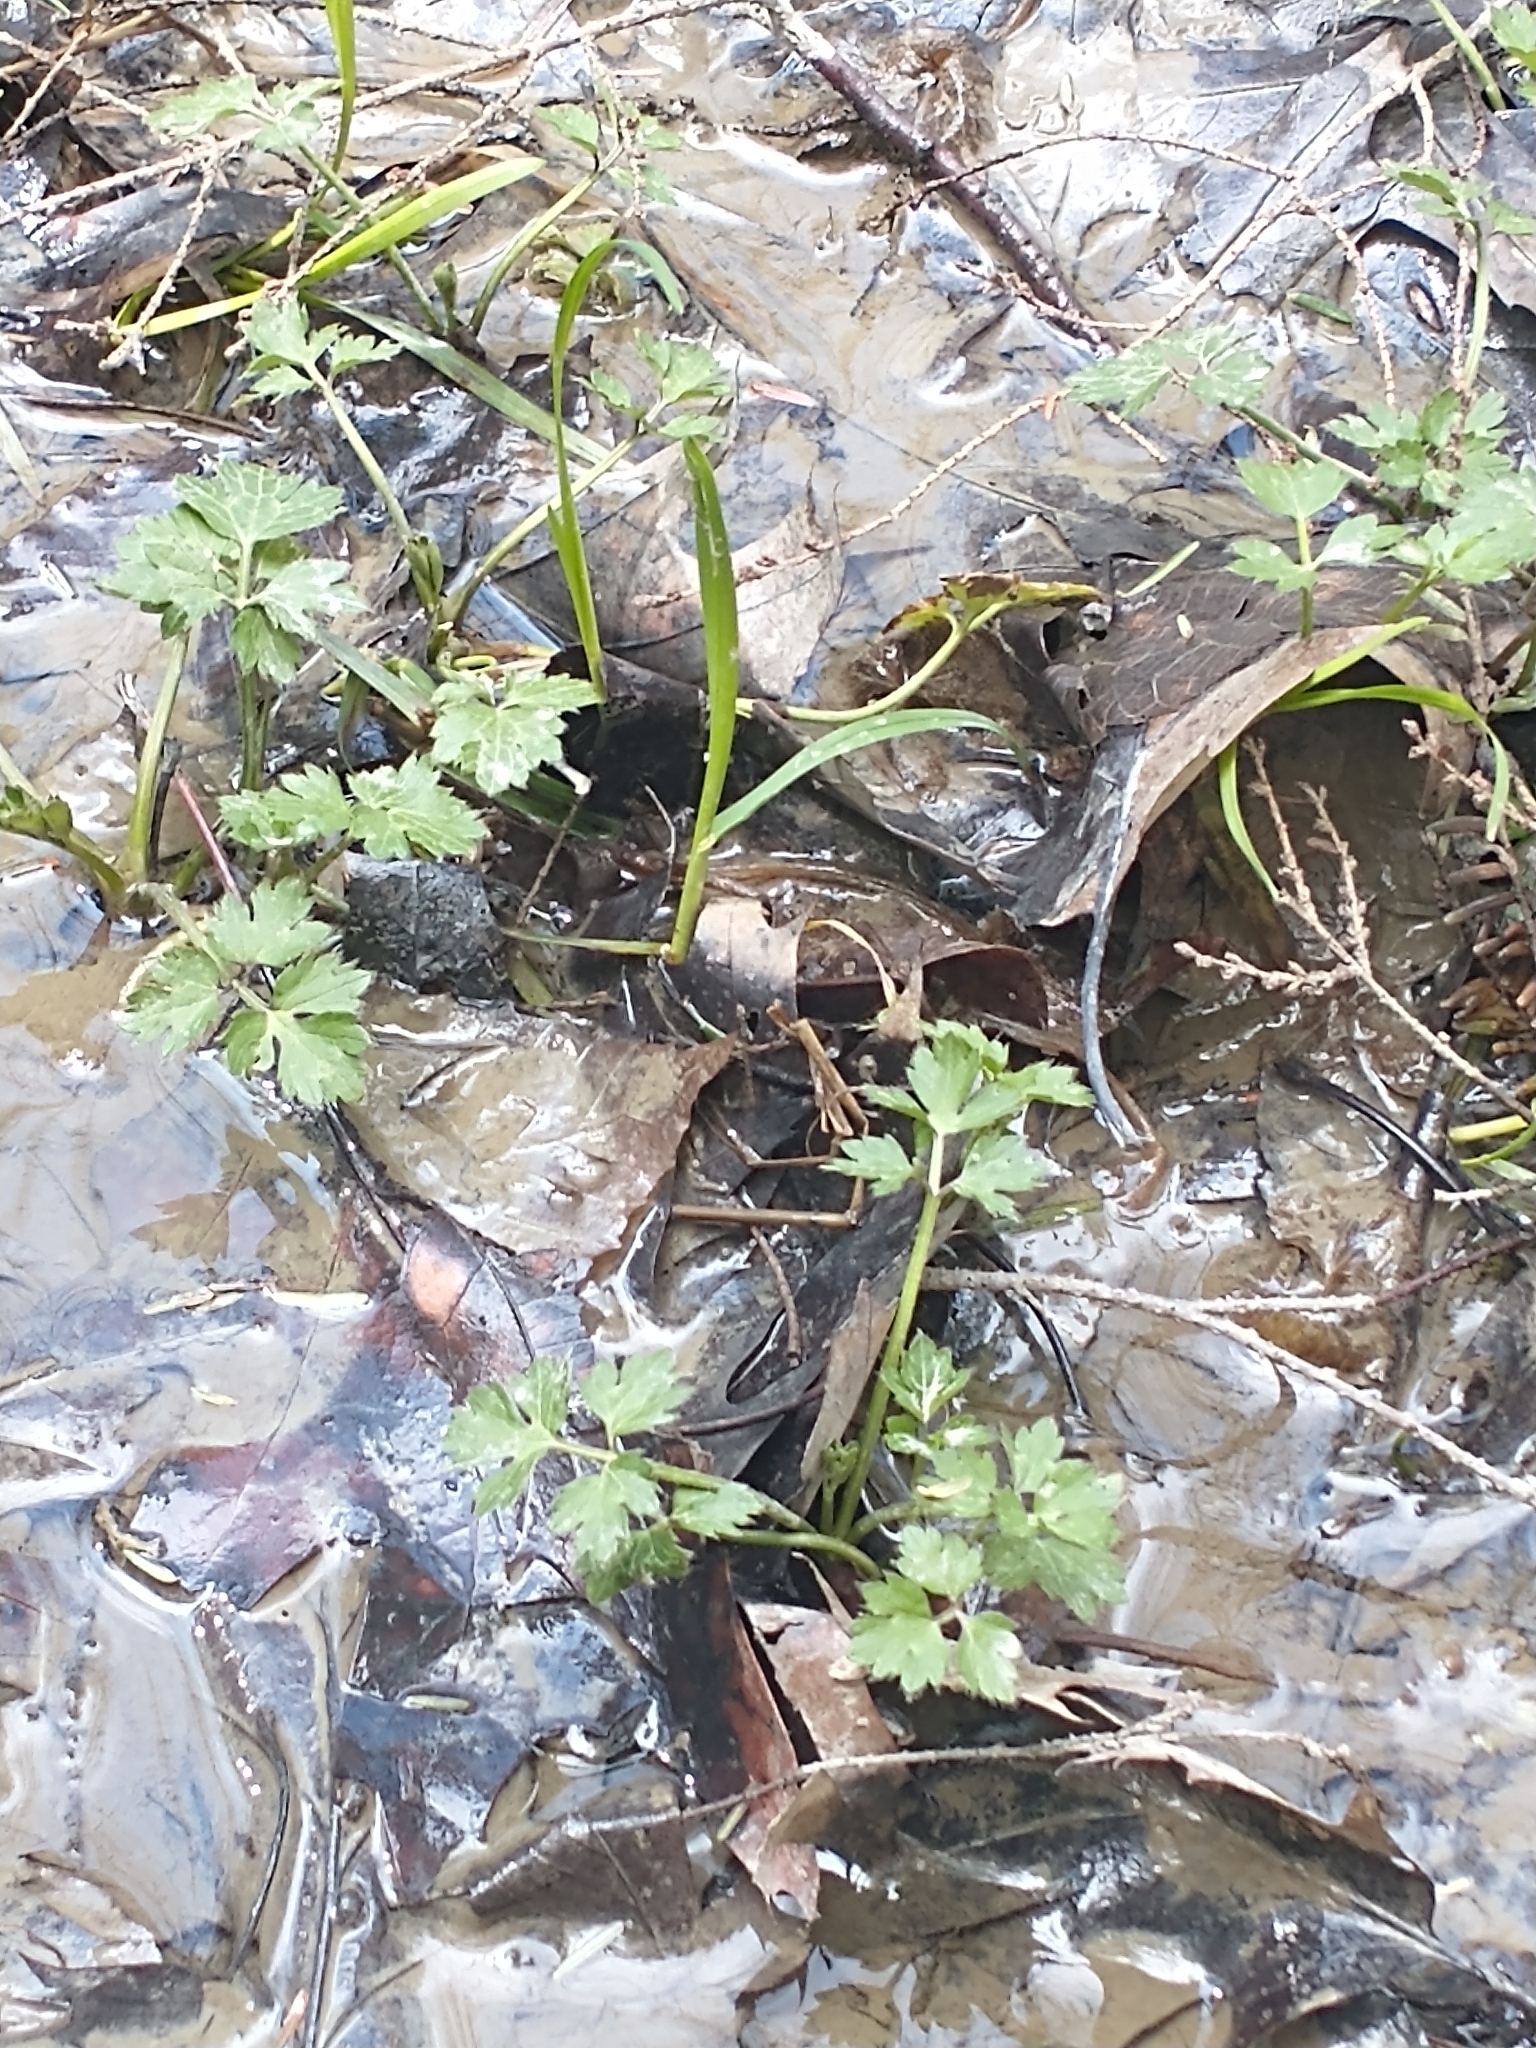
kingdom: Plantae
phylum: Tracheophyta
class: Magnoliopsida
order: Ranunculales
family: Ranunculaceae
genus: Ranunculus
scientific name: Ranunculus repens
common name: Creeping buttercup
